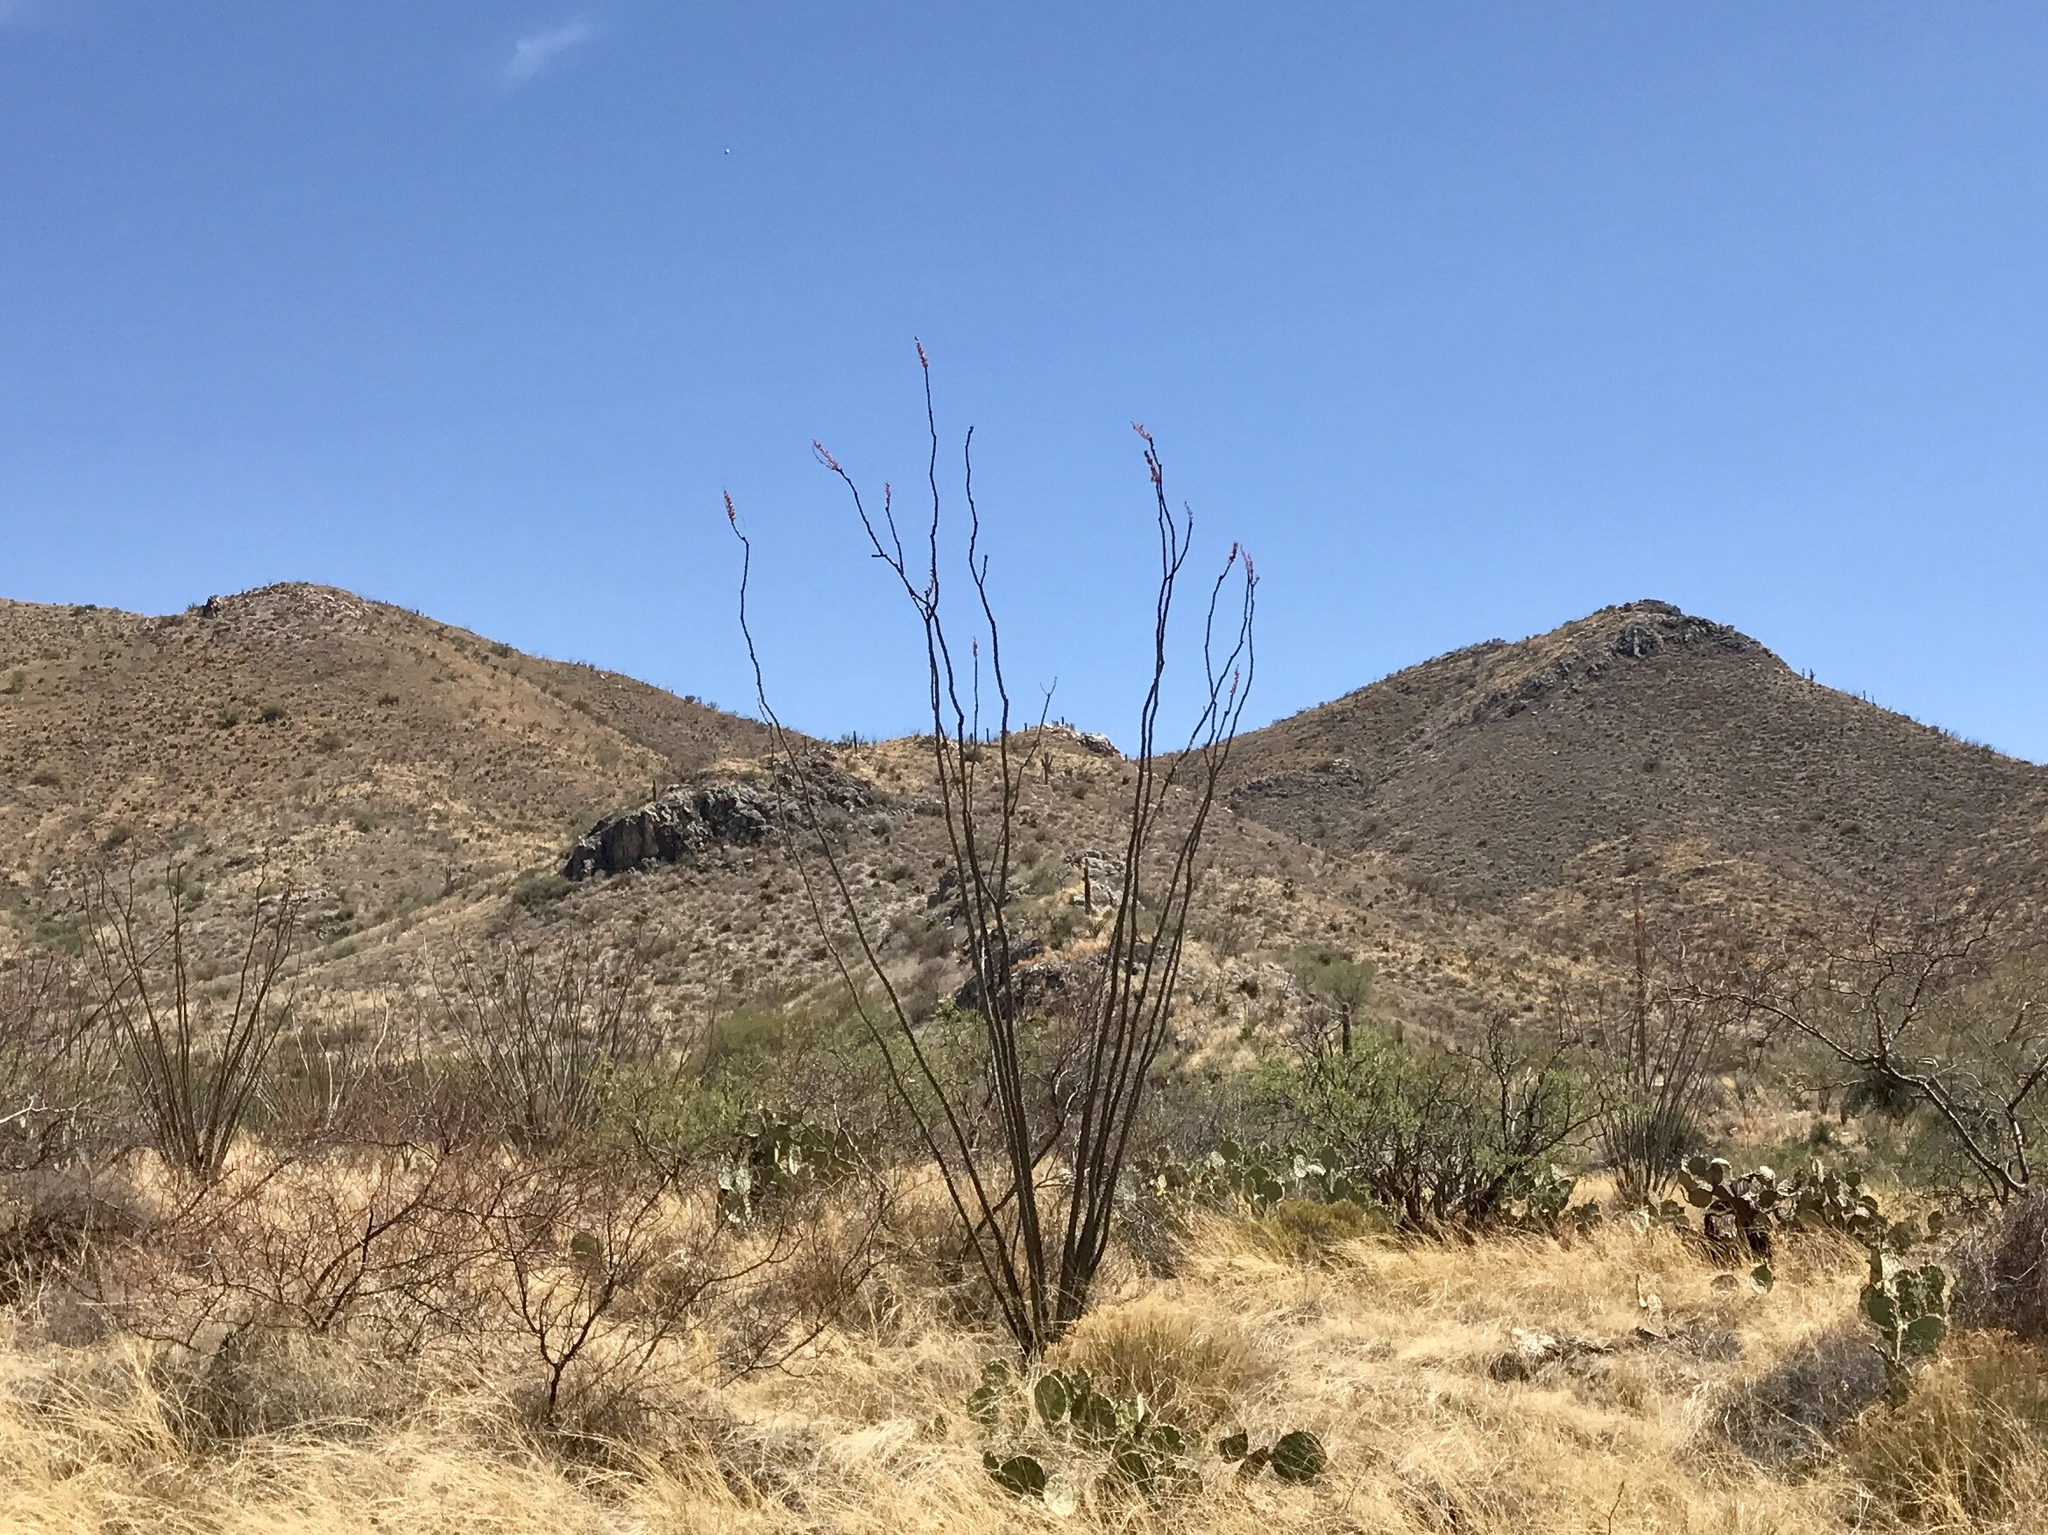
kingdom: Plantae
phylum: Tracheophyta
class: Magnoliopsida
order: Ericales
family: Fouquieriaceae
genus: Fouquieria
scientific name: Fouquieria splendens
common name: Vine-cactus
